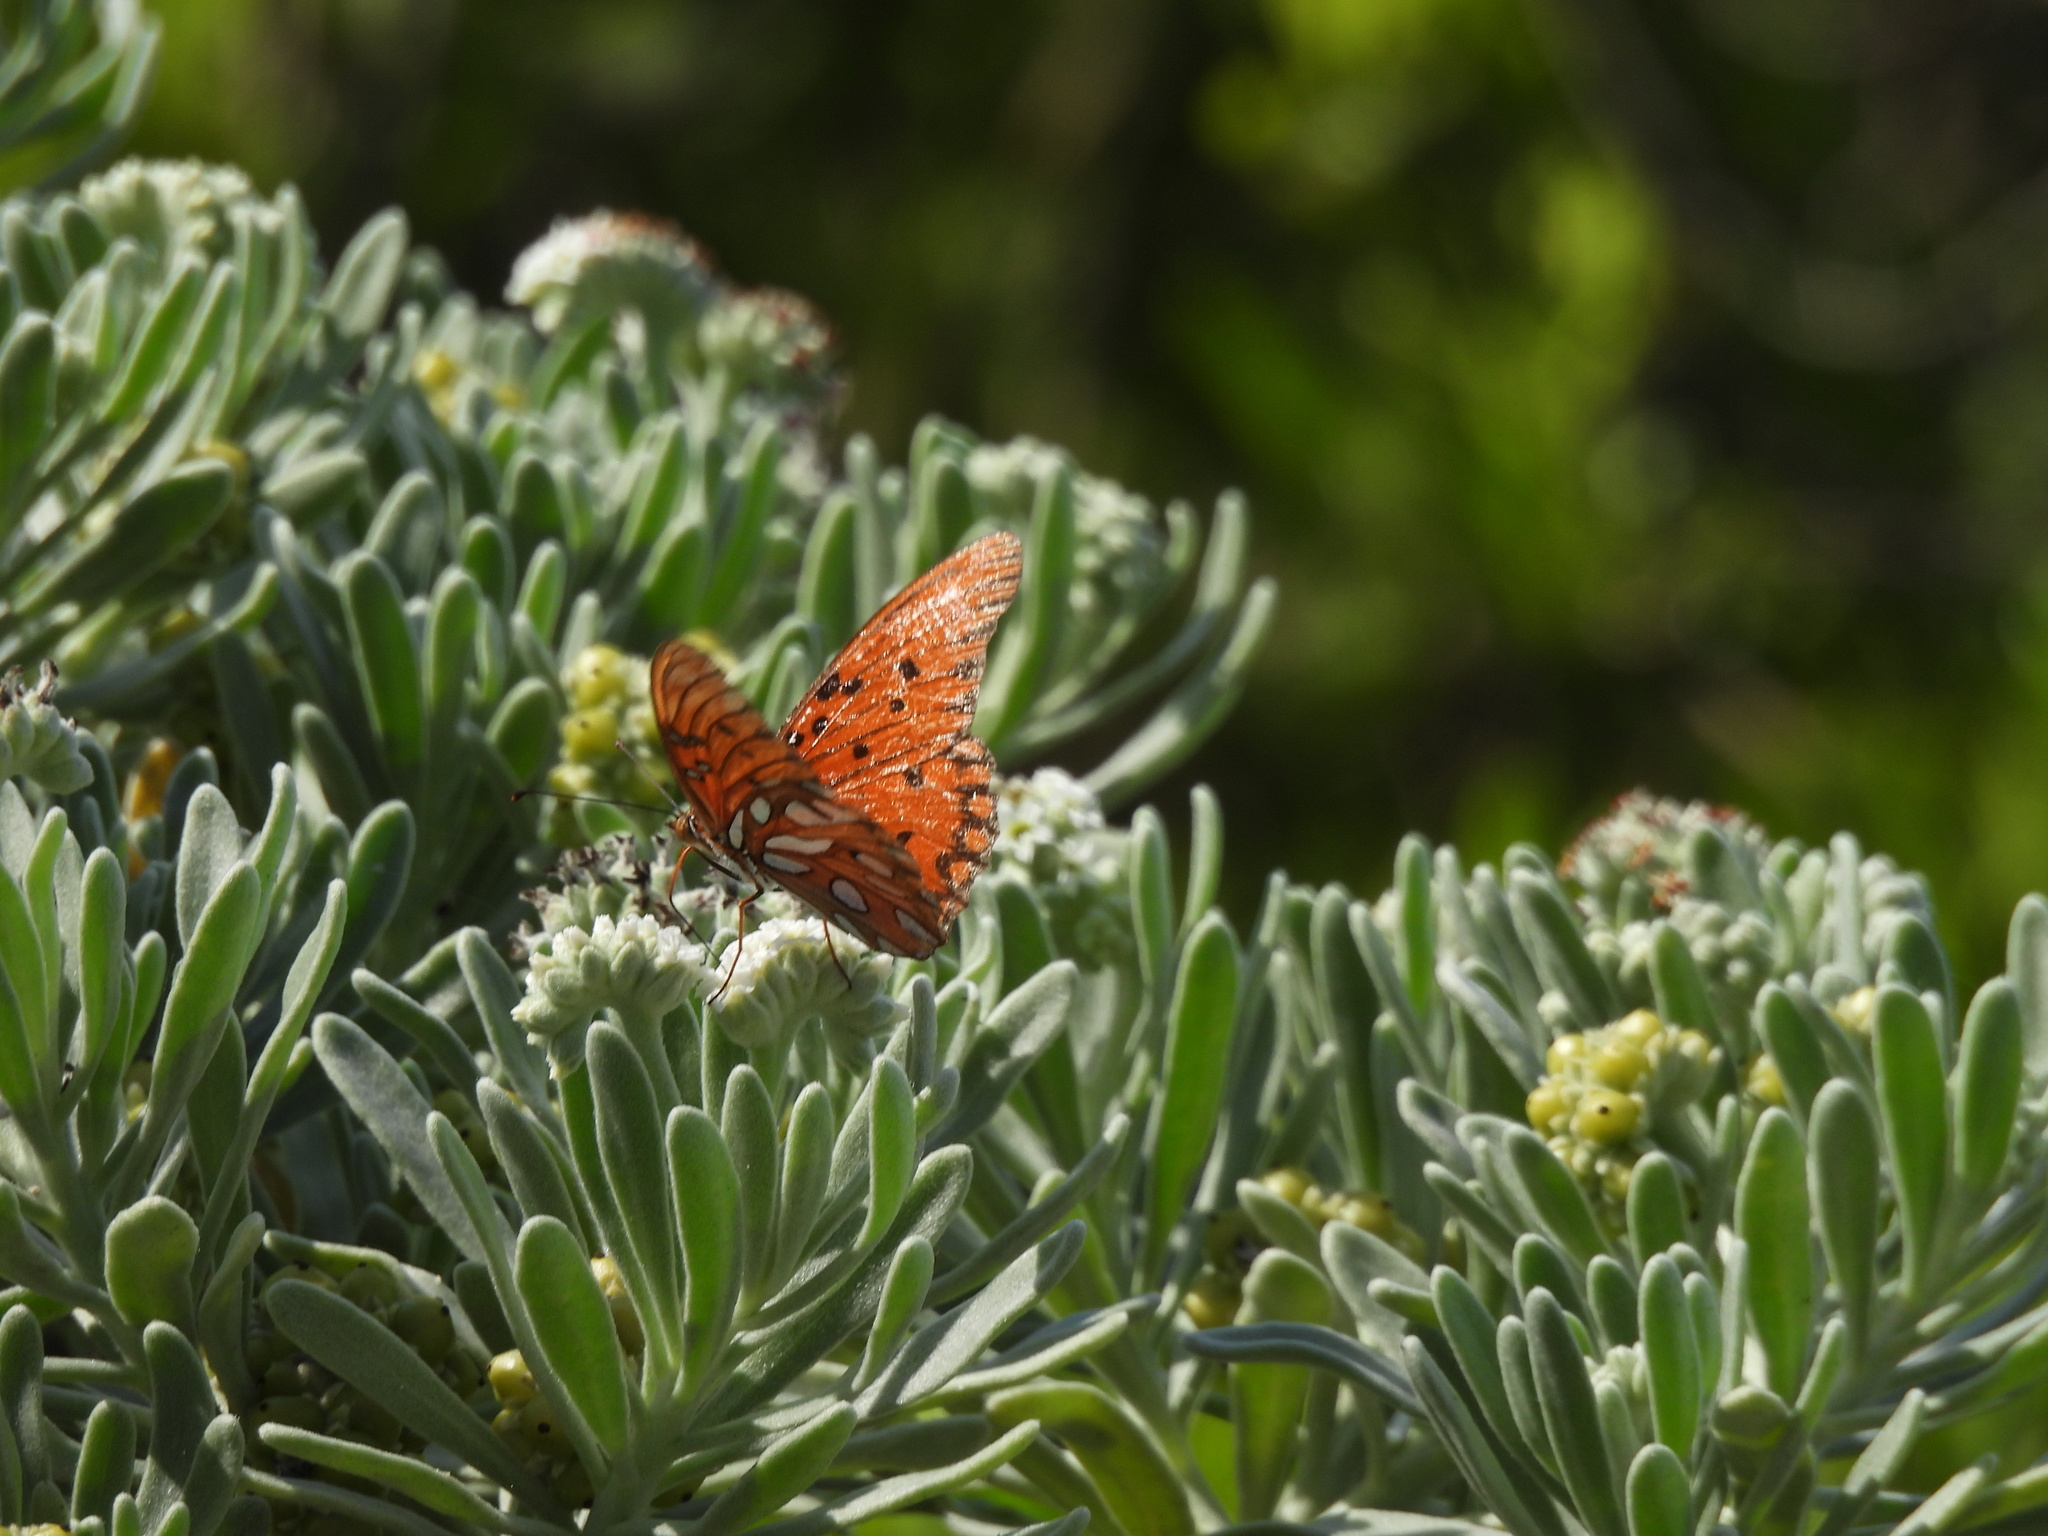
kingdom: Animalia
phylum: Arthropoda
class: Insecta
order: Lepidoptera
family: Nymphalidae
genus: Dione
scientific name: Dione vanillae
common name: Gulf fritillary
